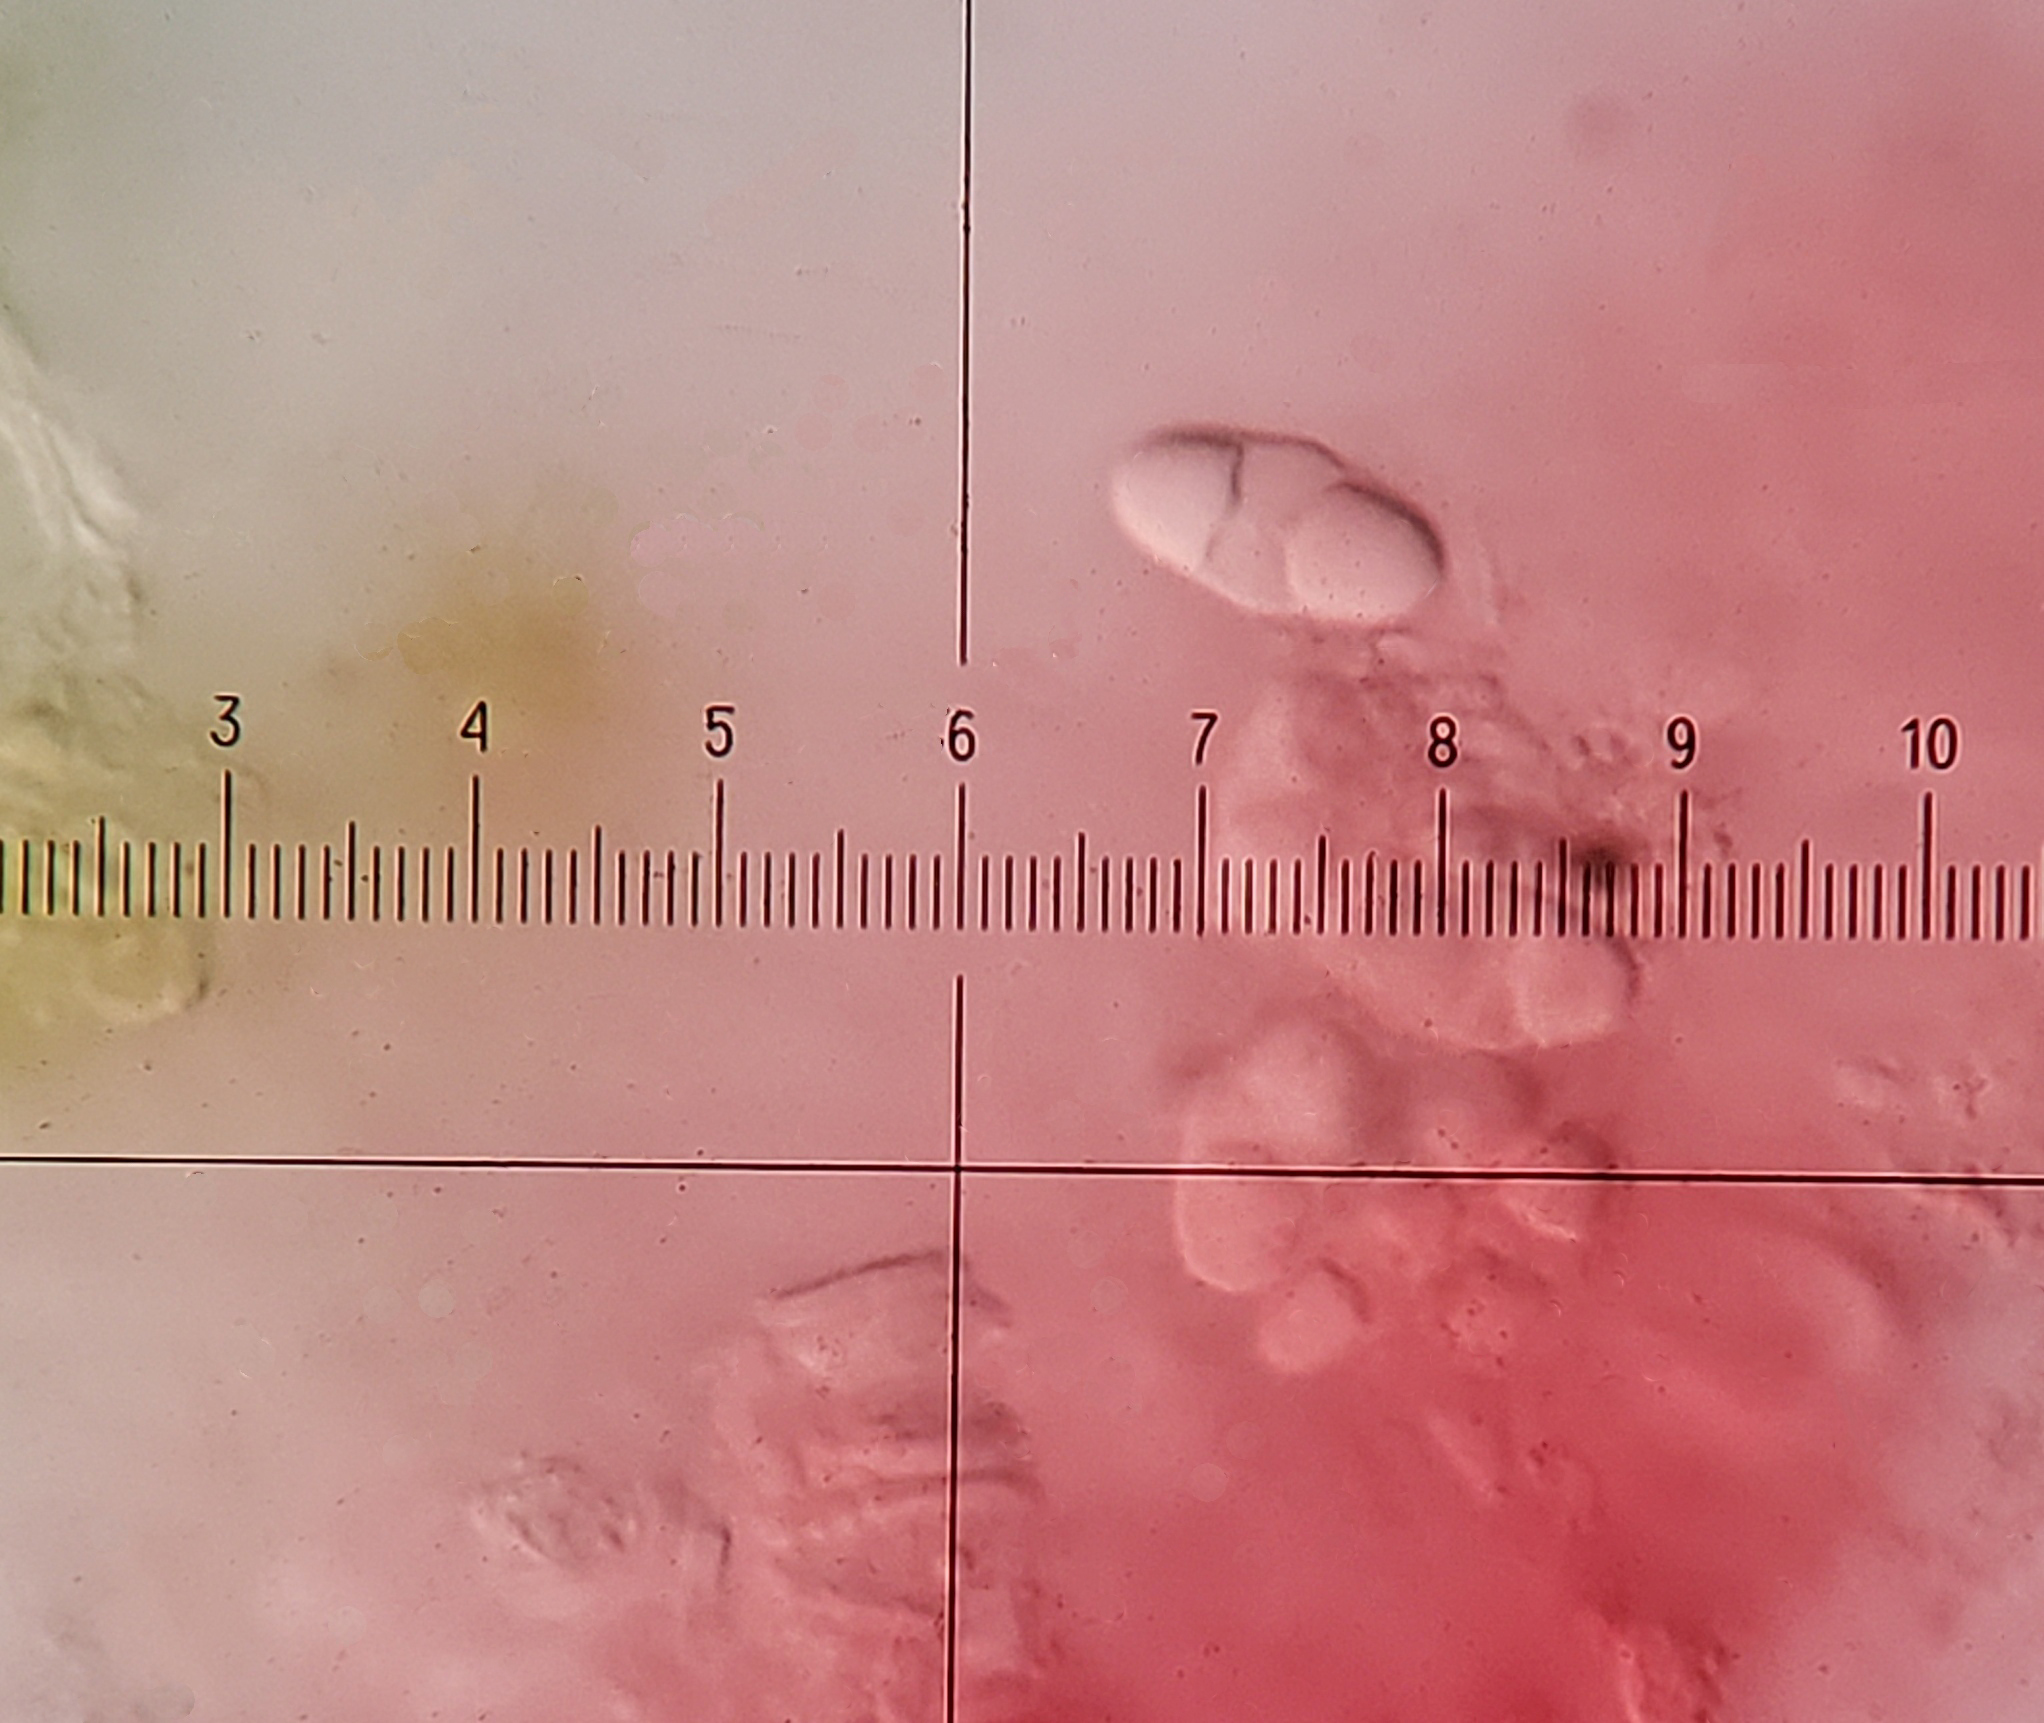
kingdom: Fungi
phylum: Ascomycota
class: Lecanoromycetes
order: Teloschistales
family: Teloschistaceae
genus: Xanthocarpia
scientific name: Xanthocarpia feracissima
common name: Sidewalk firedot
